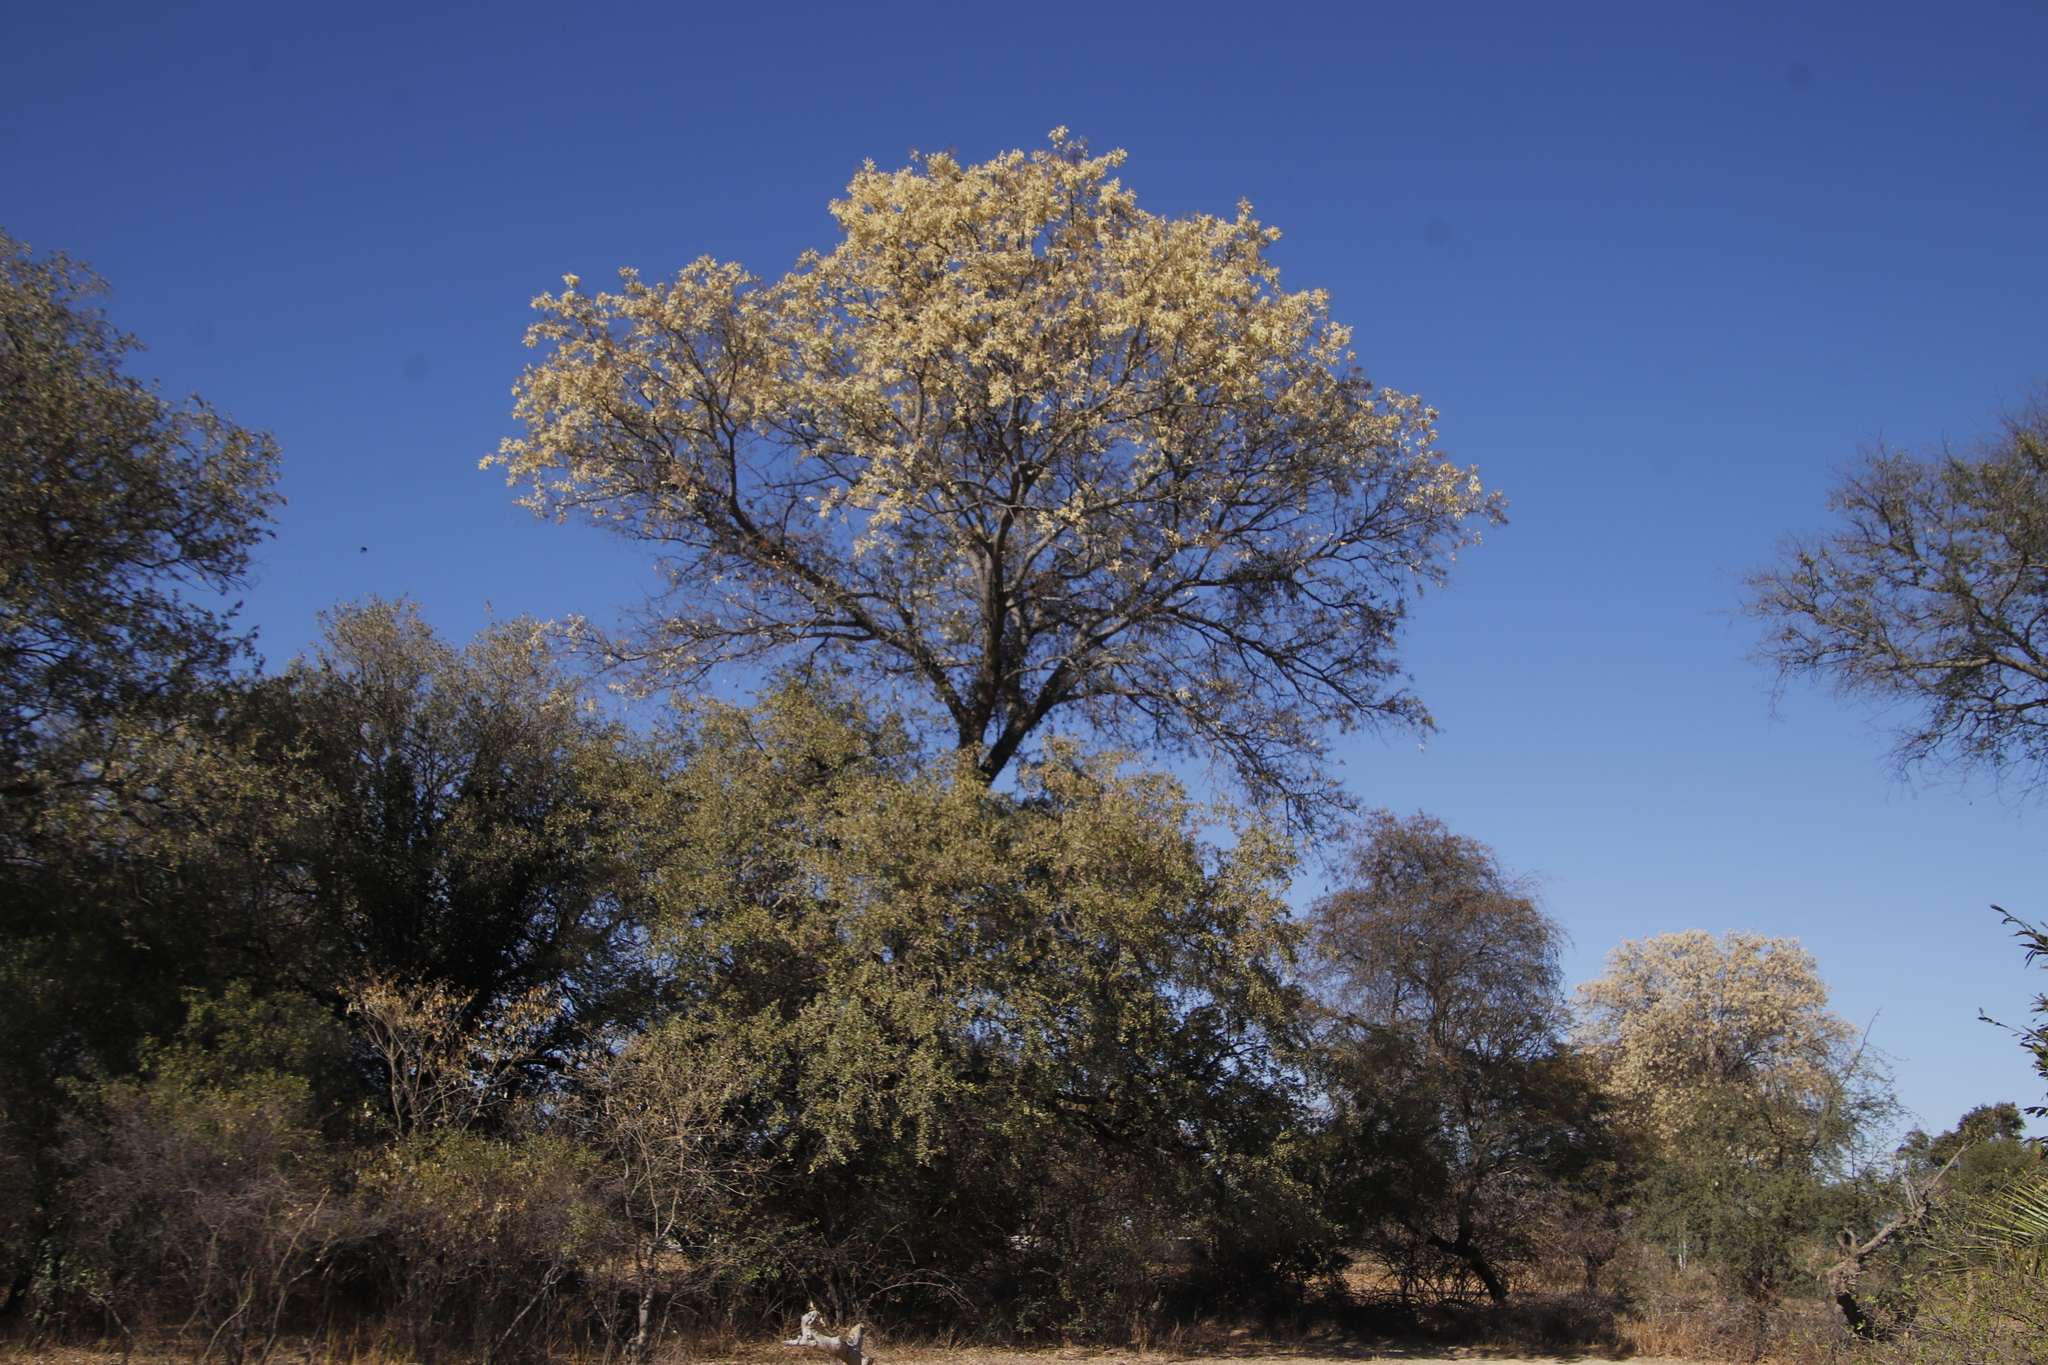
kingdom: Plantae
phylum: Tracheophyta
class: Magnoliopsida
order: Fabales
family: Fabaceae
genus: Senegalia
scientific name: Senegalia nigrescens
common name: Knobthorn
